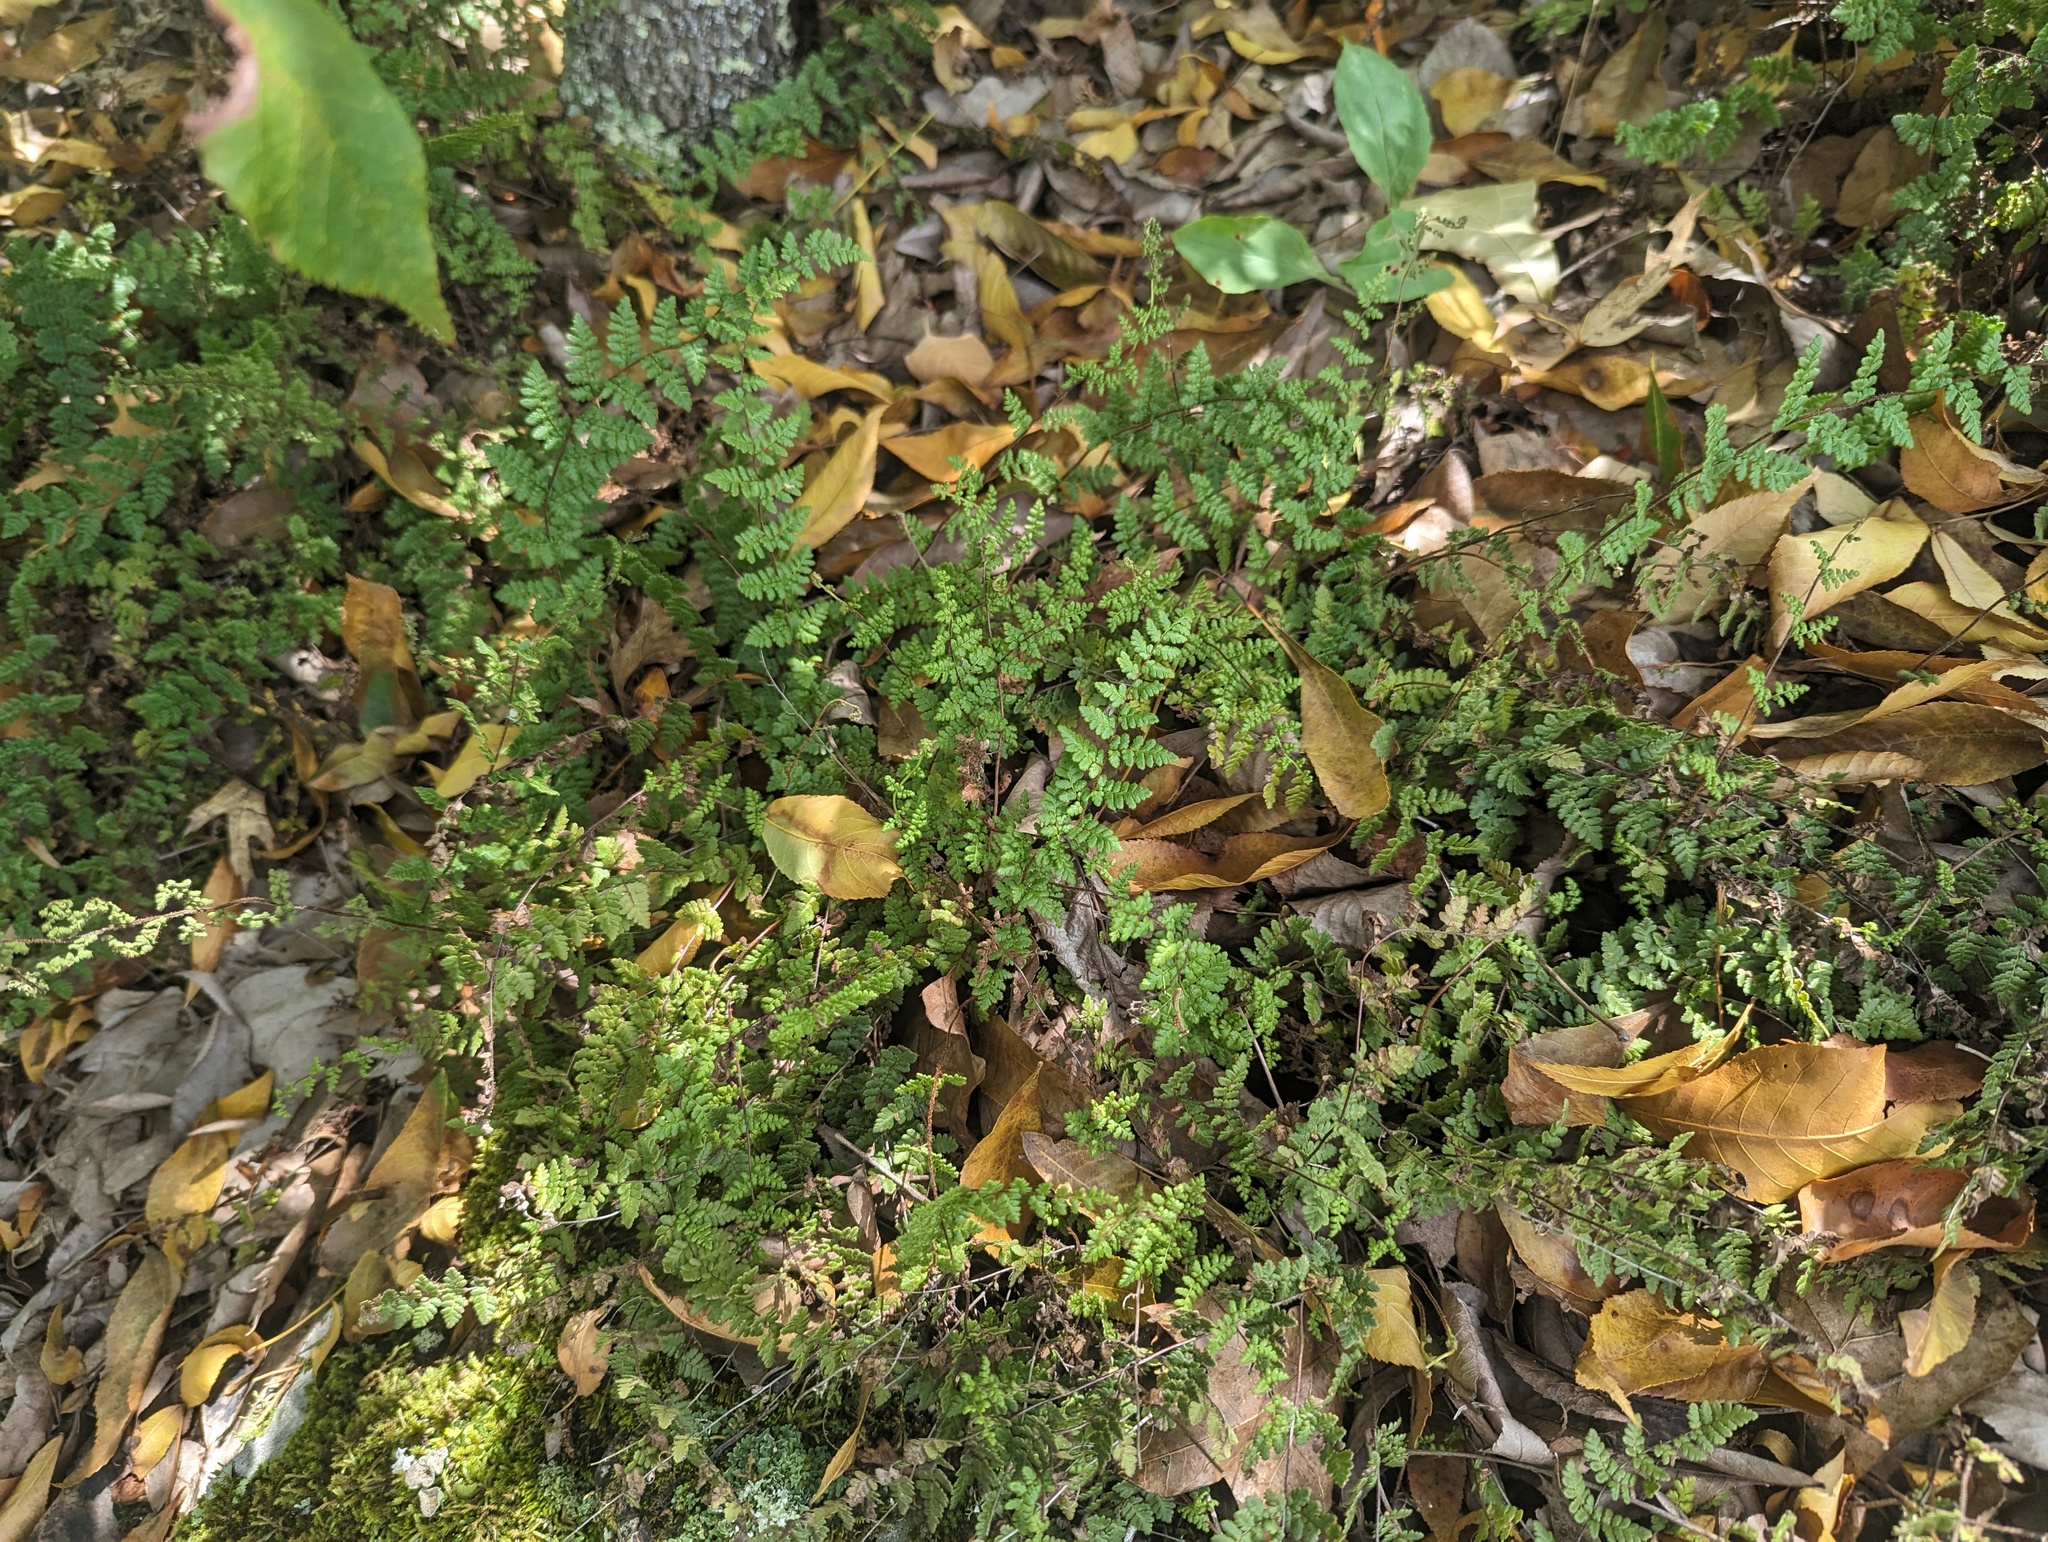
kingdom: Plantae
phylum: Tracheophyta
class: Polypodiopsida
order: Polypodiales
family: Pteridaceae
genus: Myriopteris
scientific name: Myriopteris lanosa
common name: Hairy lip fern
